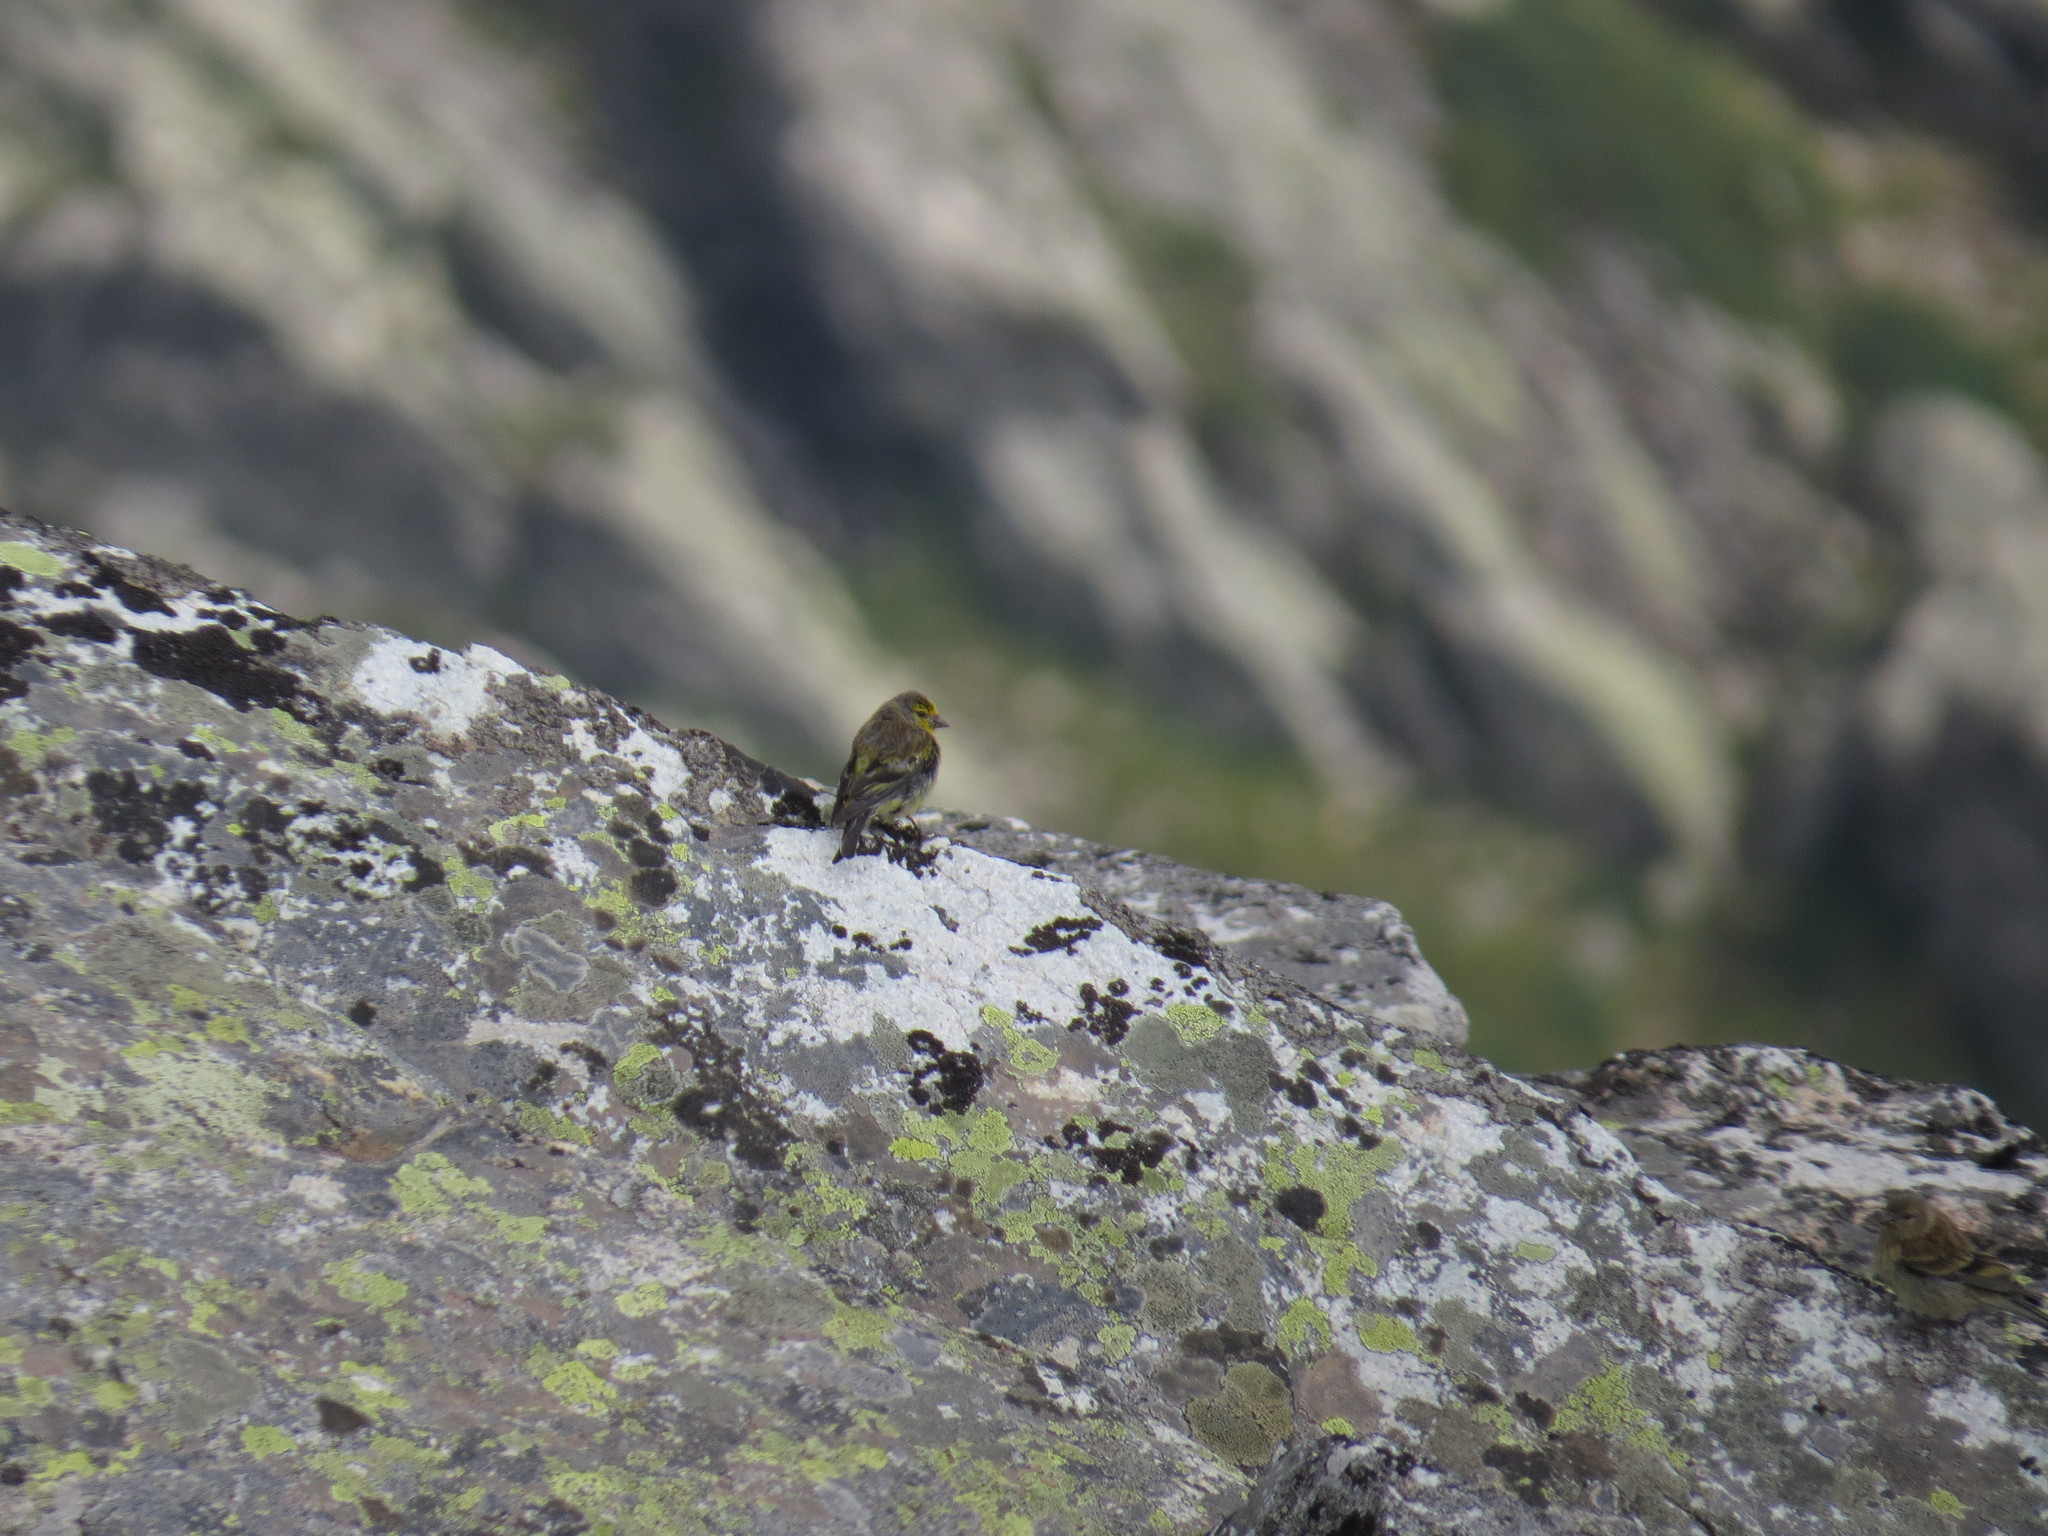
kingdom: Animalia
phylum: Chordata
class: Aves
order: Passeriformes
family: Fringillidae
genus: Carduelis
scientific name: Carduelis corsicana
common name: Corsican finch
